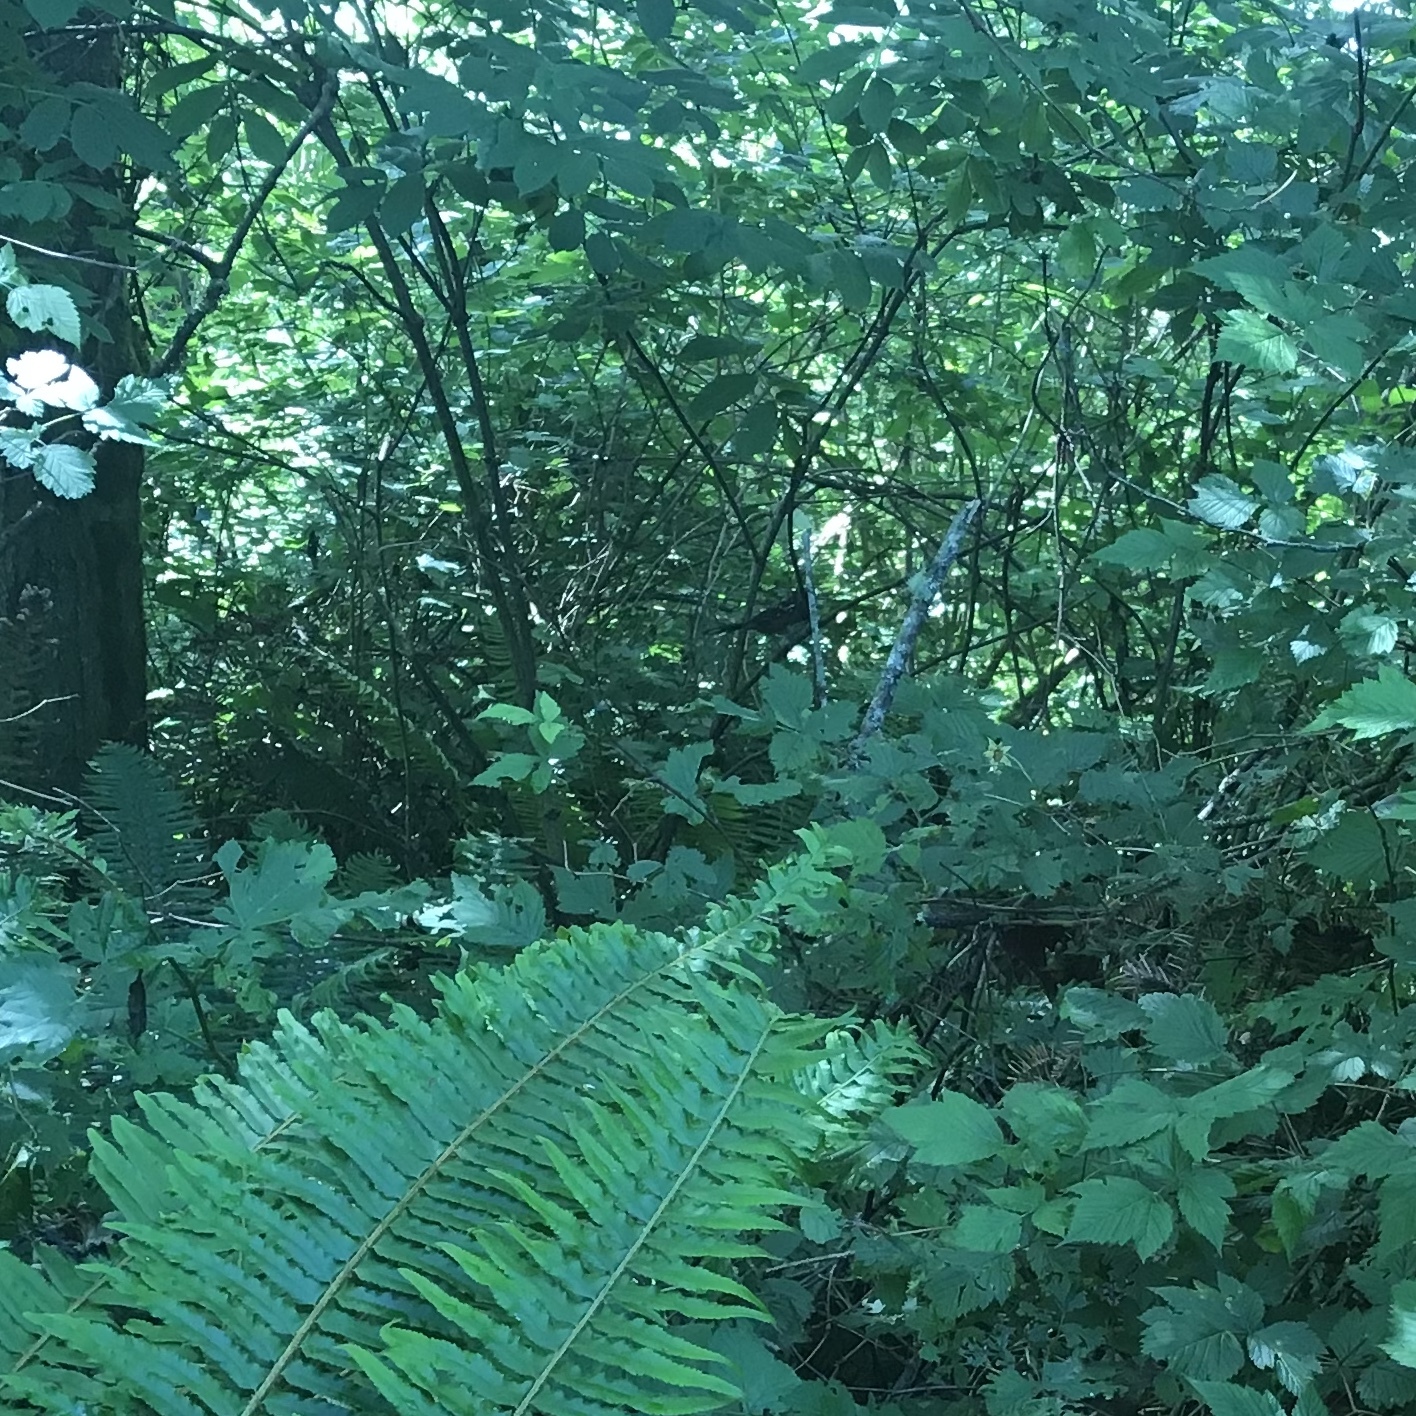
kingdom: Animalia
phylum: Chordata
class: Aves
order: Passeriformes
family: Passerellidae
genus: Pipilo
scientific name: Pipilo maculatus
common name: Spotted towhee
